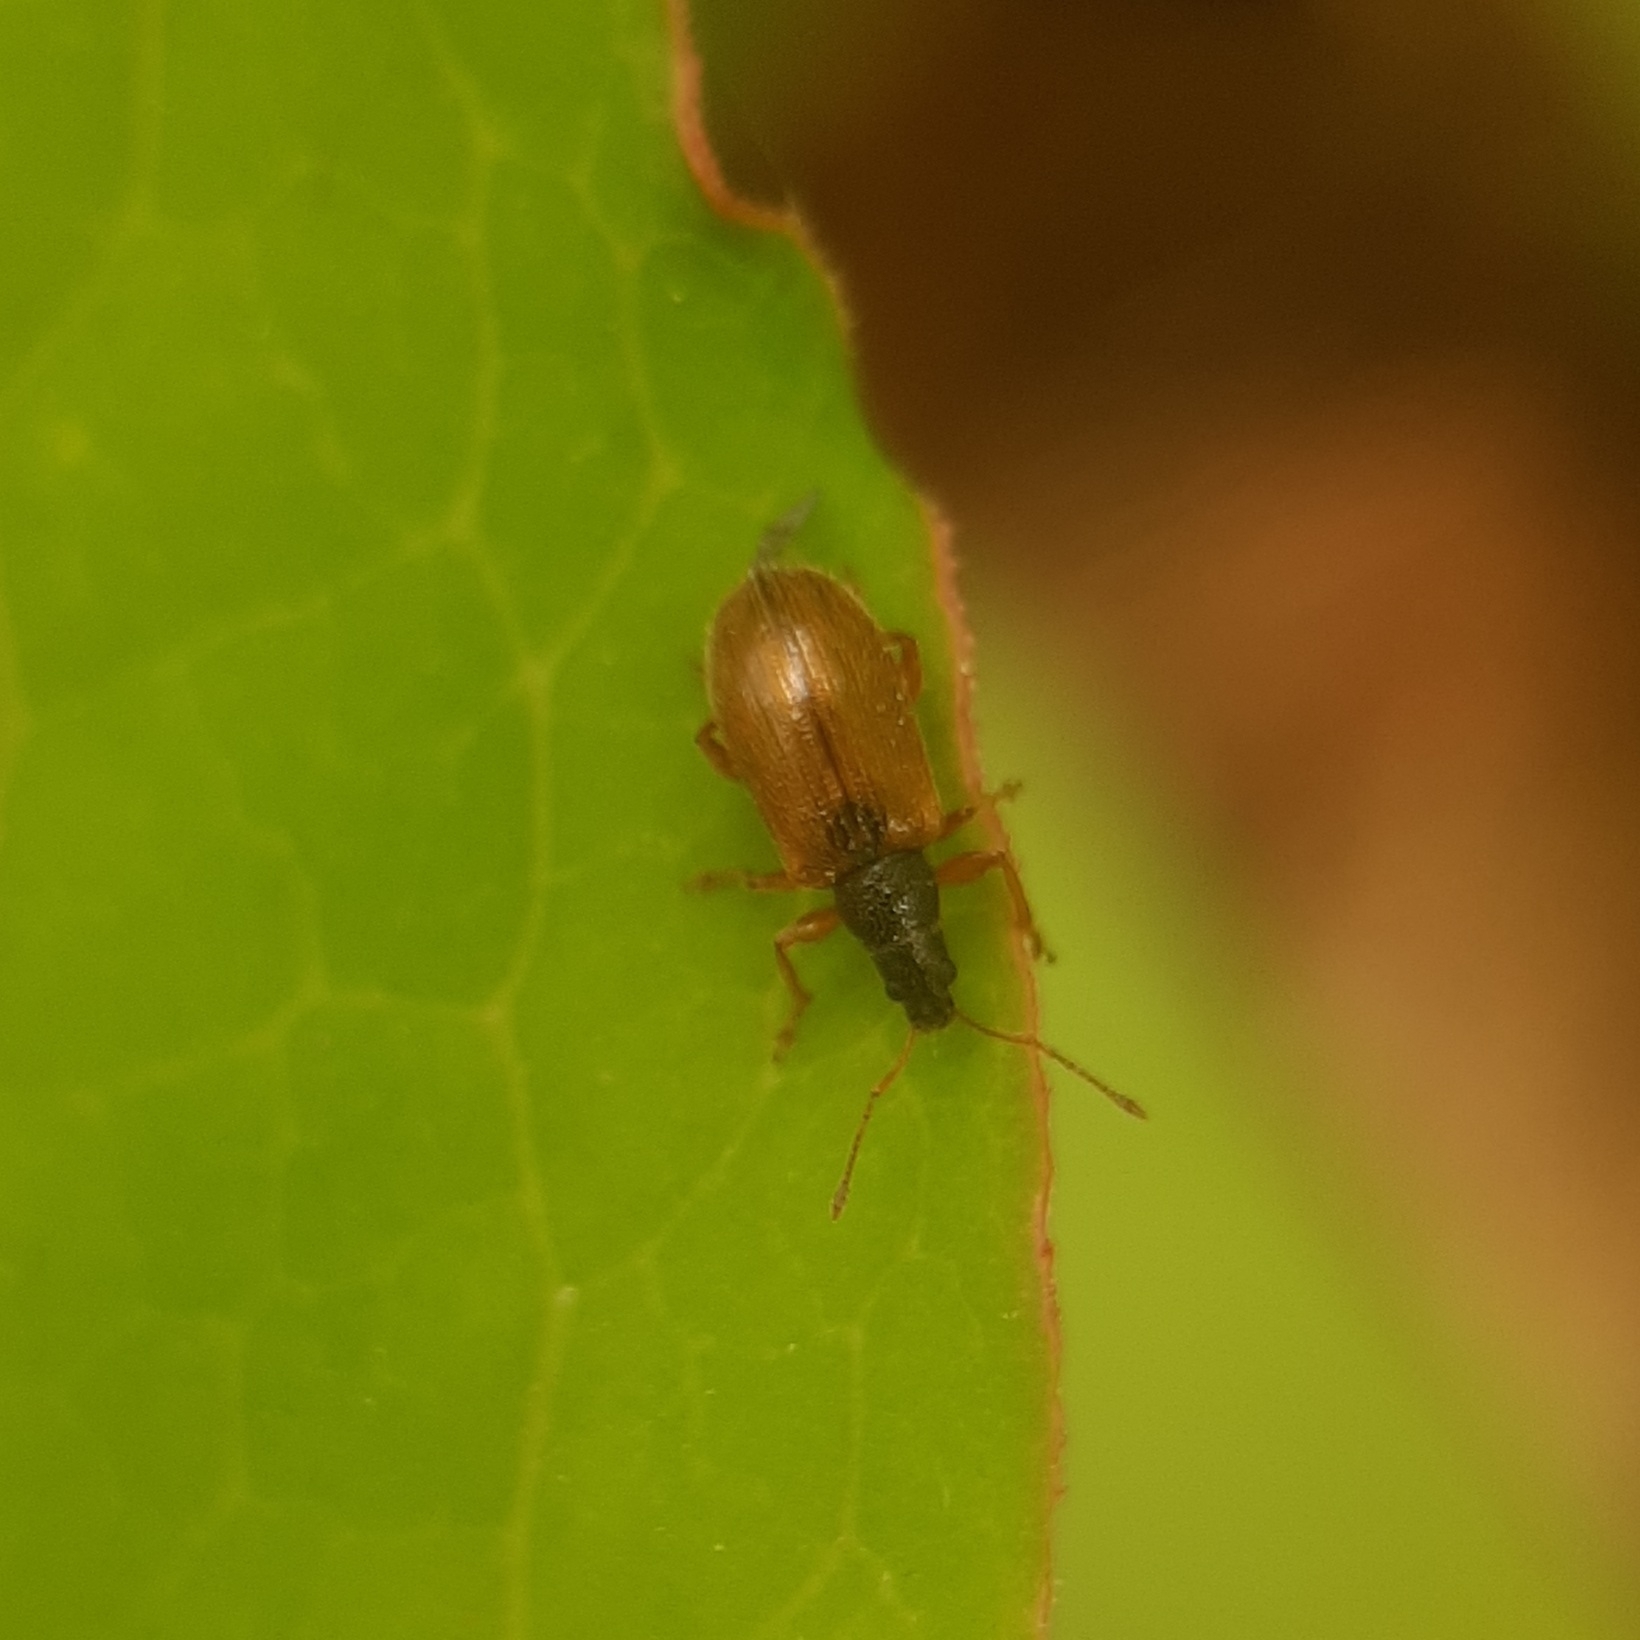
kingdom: Animalia
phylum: Arthropoda
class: Insecta
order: Coleoptera
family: Curculionidae
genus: Phyllobius
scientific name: Phyllobius oblongus
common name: Brown leaf weevil
